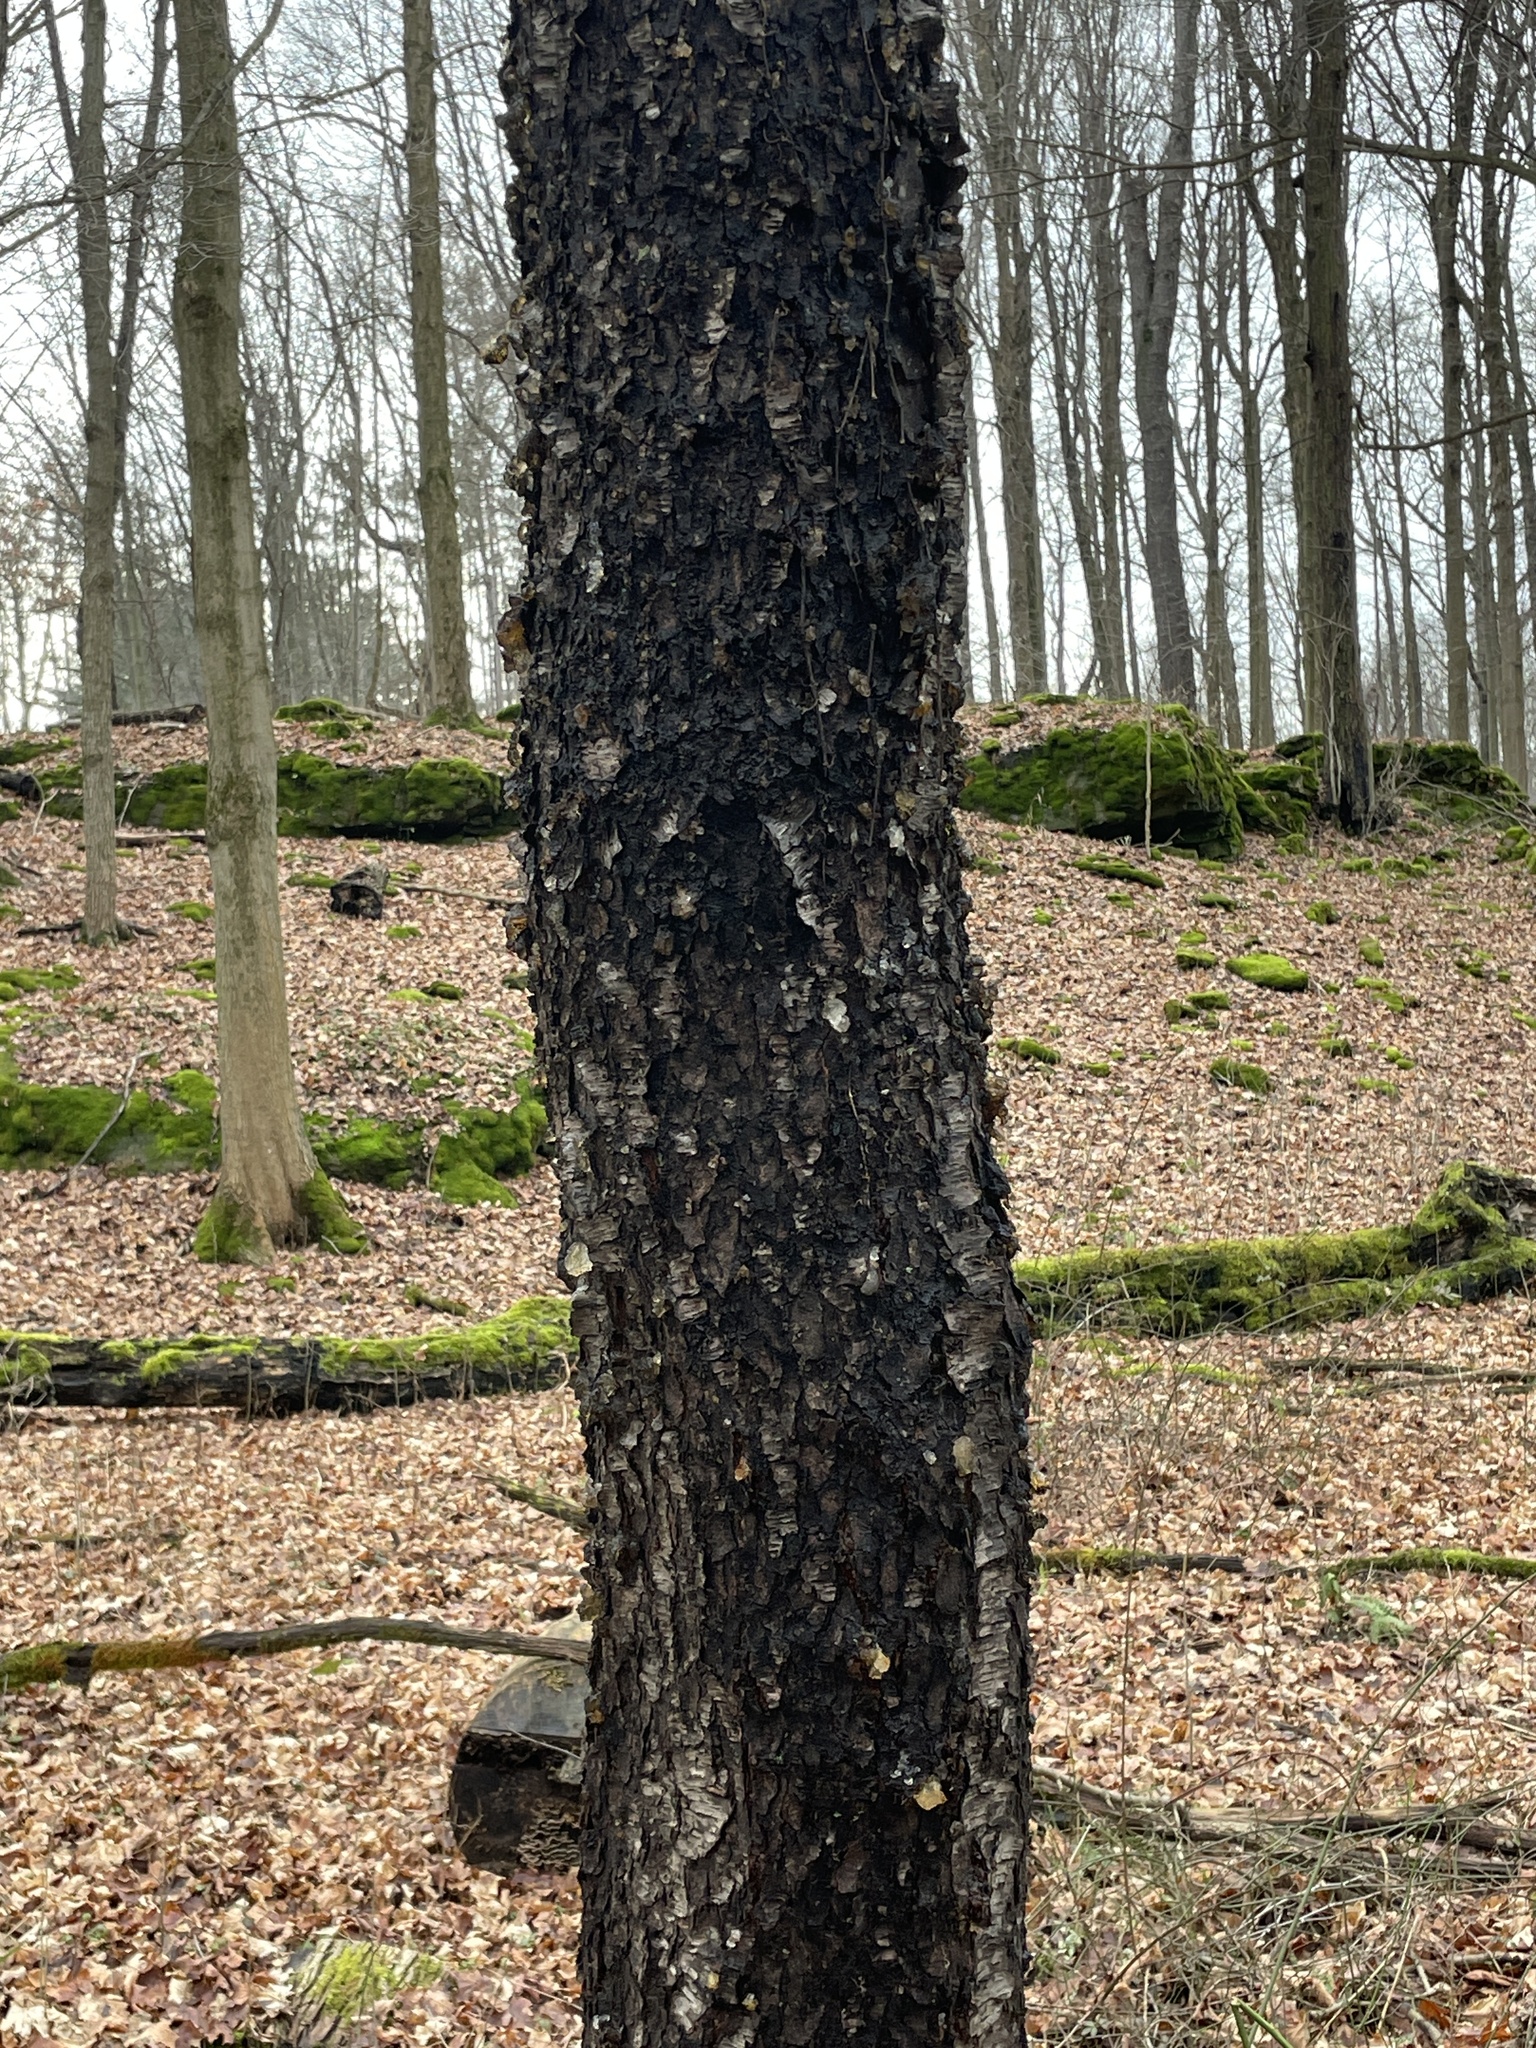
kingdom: Plantae
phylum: Tracheophyta
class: Magnoliopsida
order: Rosales
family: Rosaceae
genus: Prunus
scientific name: Prunus serotina
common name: Black cherry
